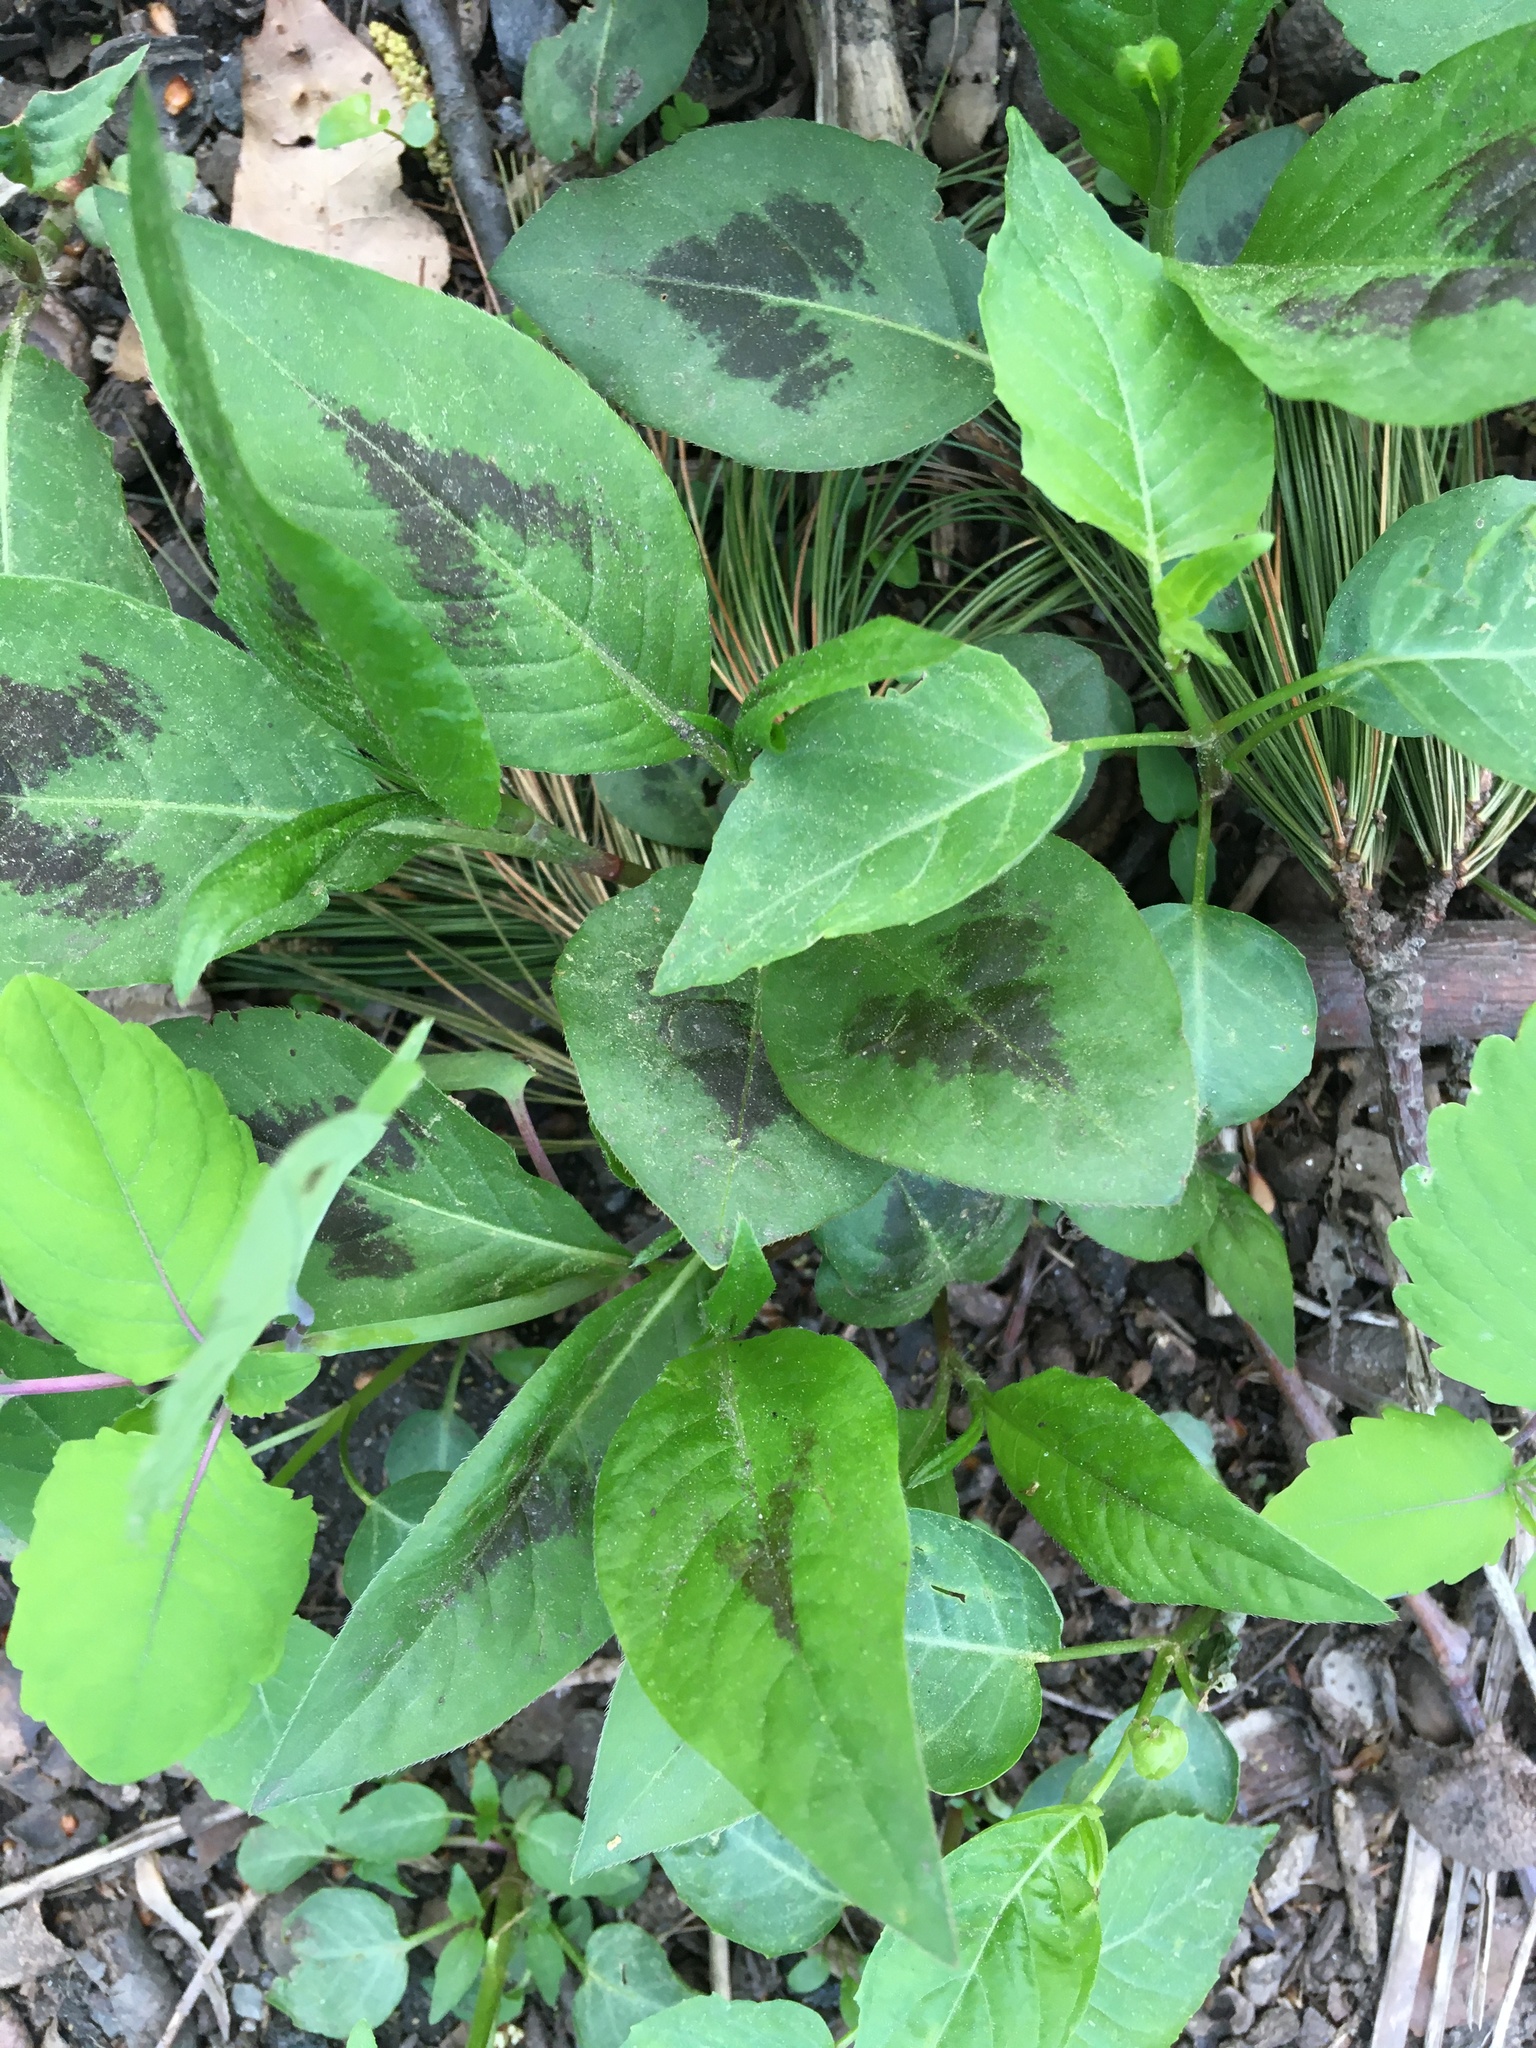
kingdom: Plantae
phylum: Tracheophyta
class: Magnoliopsida
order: Caryophyllales
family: Polygonaceae
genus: Persicaria
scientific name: Persicaria virginiana
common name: Jumpseed
